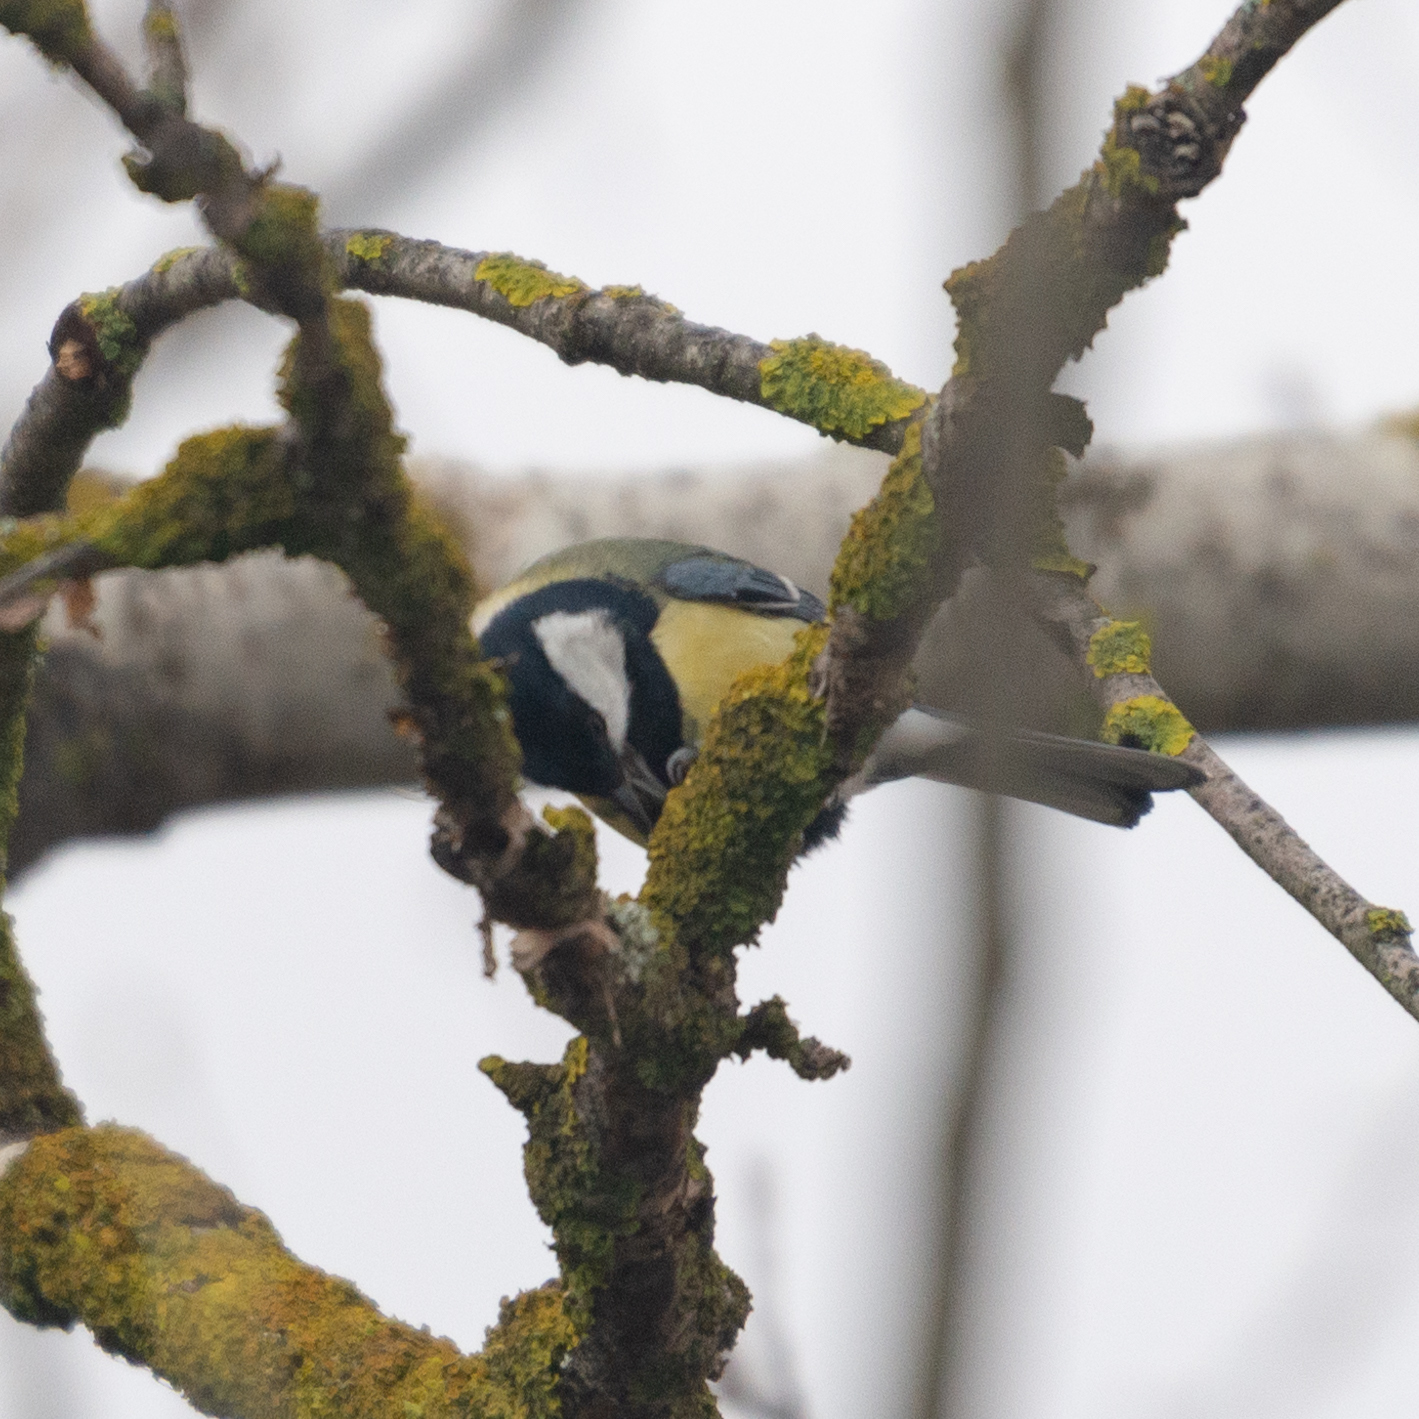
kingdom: Animalia
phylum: Chordata
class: Aves
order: Passeriformes
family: Paridae
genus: Parus
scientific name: Parus major
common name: Great tit
